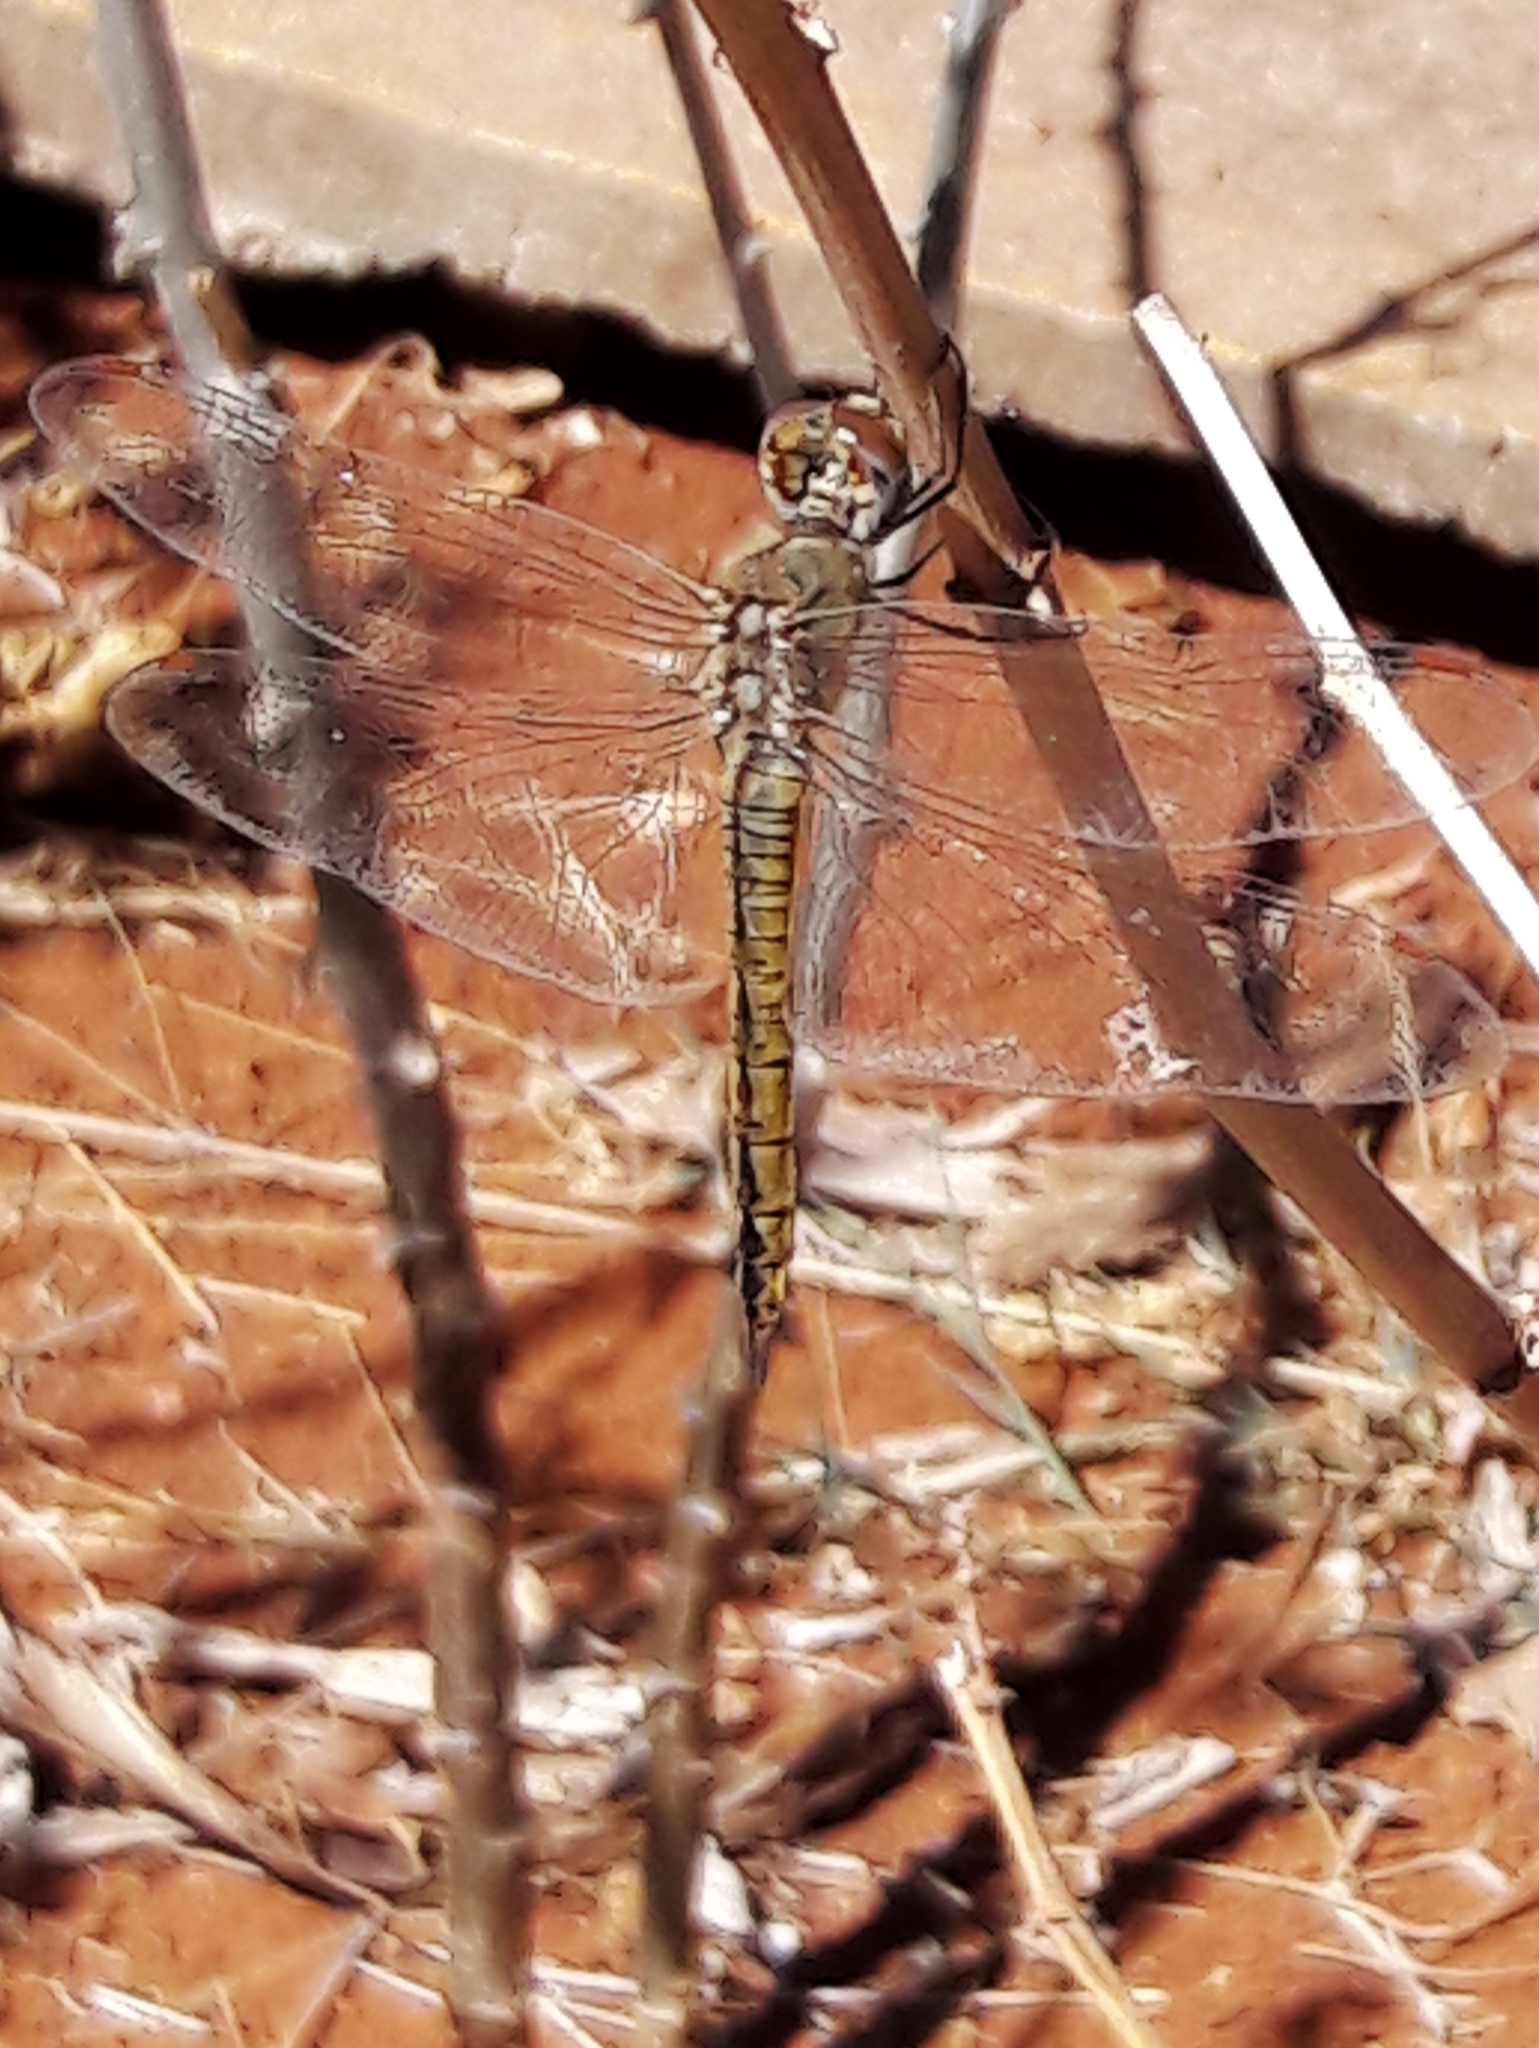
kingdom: Animalia
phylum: Arthropoda
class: Insecta
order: Odonata
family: Libellulidae
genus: Pantala
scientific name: Pantala flavescens
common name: Wandering glider
